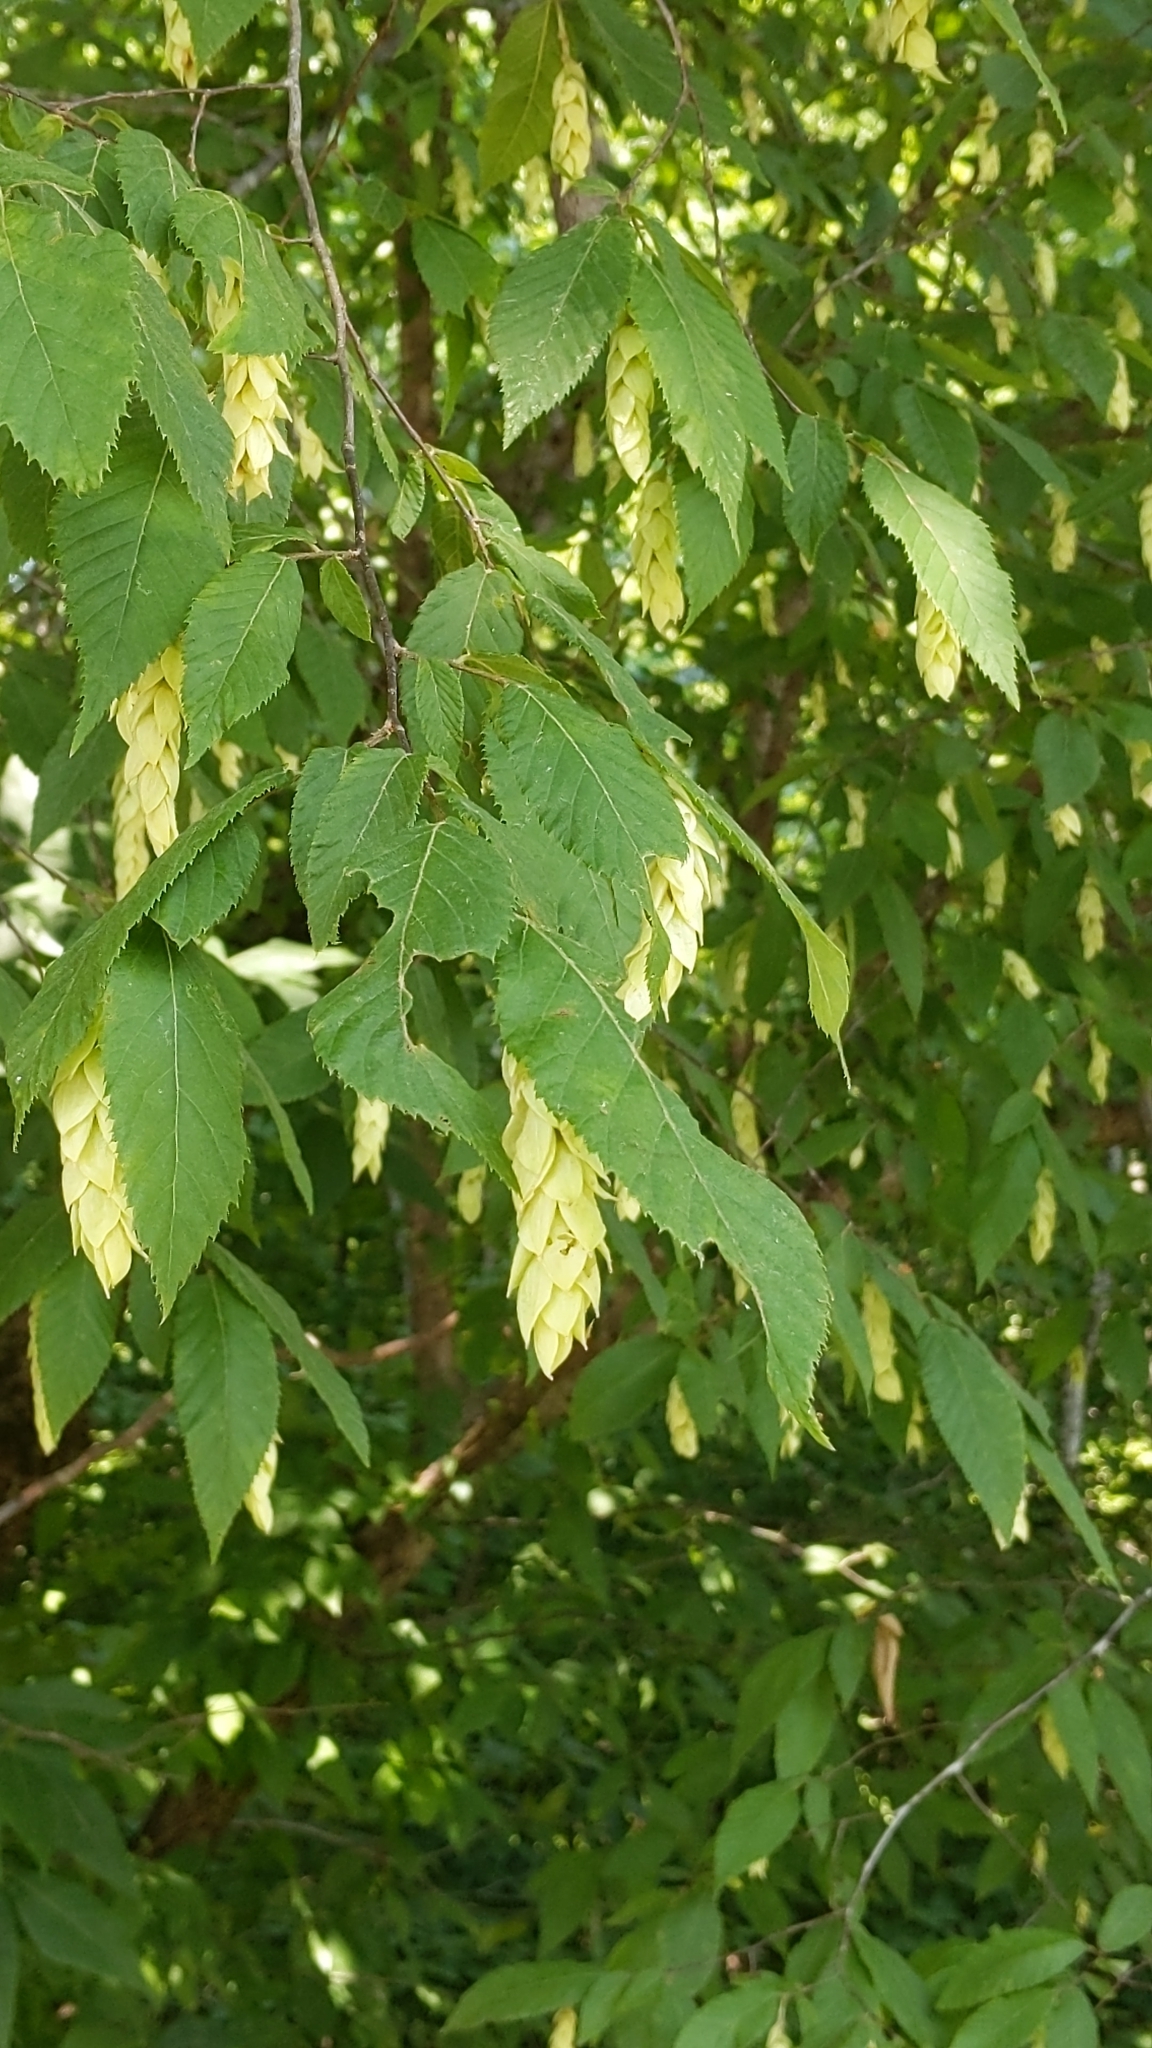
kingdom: Plantae
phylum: Tracheophyta
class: Magnoliopsida
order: Fagales
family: Betulaceae
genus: Ostrya
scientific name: Ostrya virginiana
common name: Ironwood
